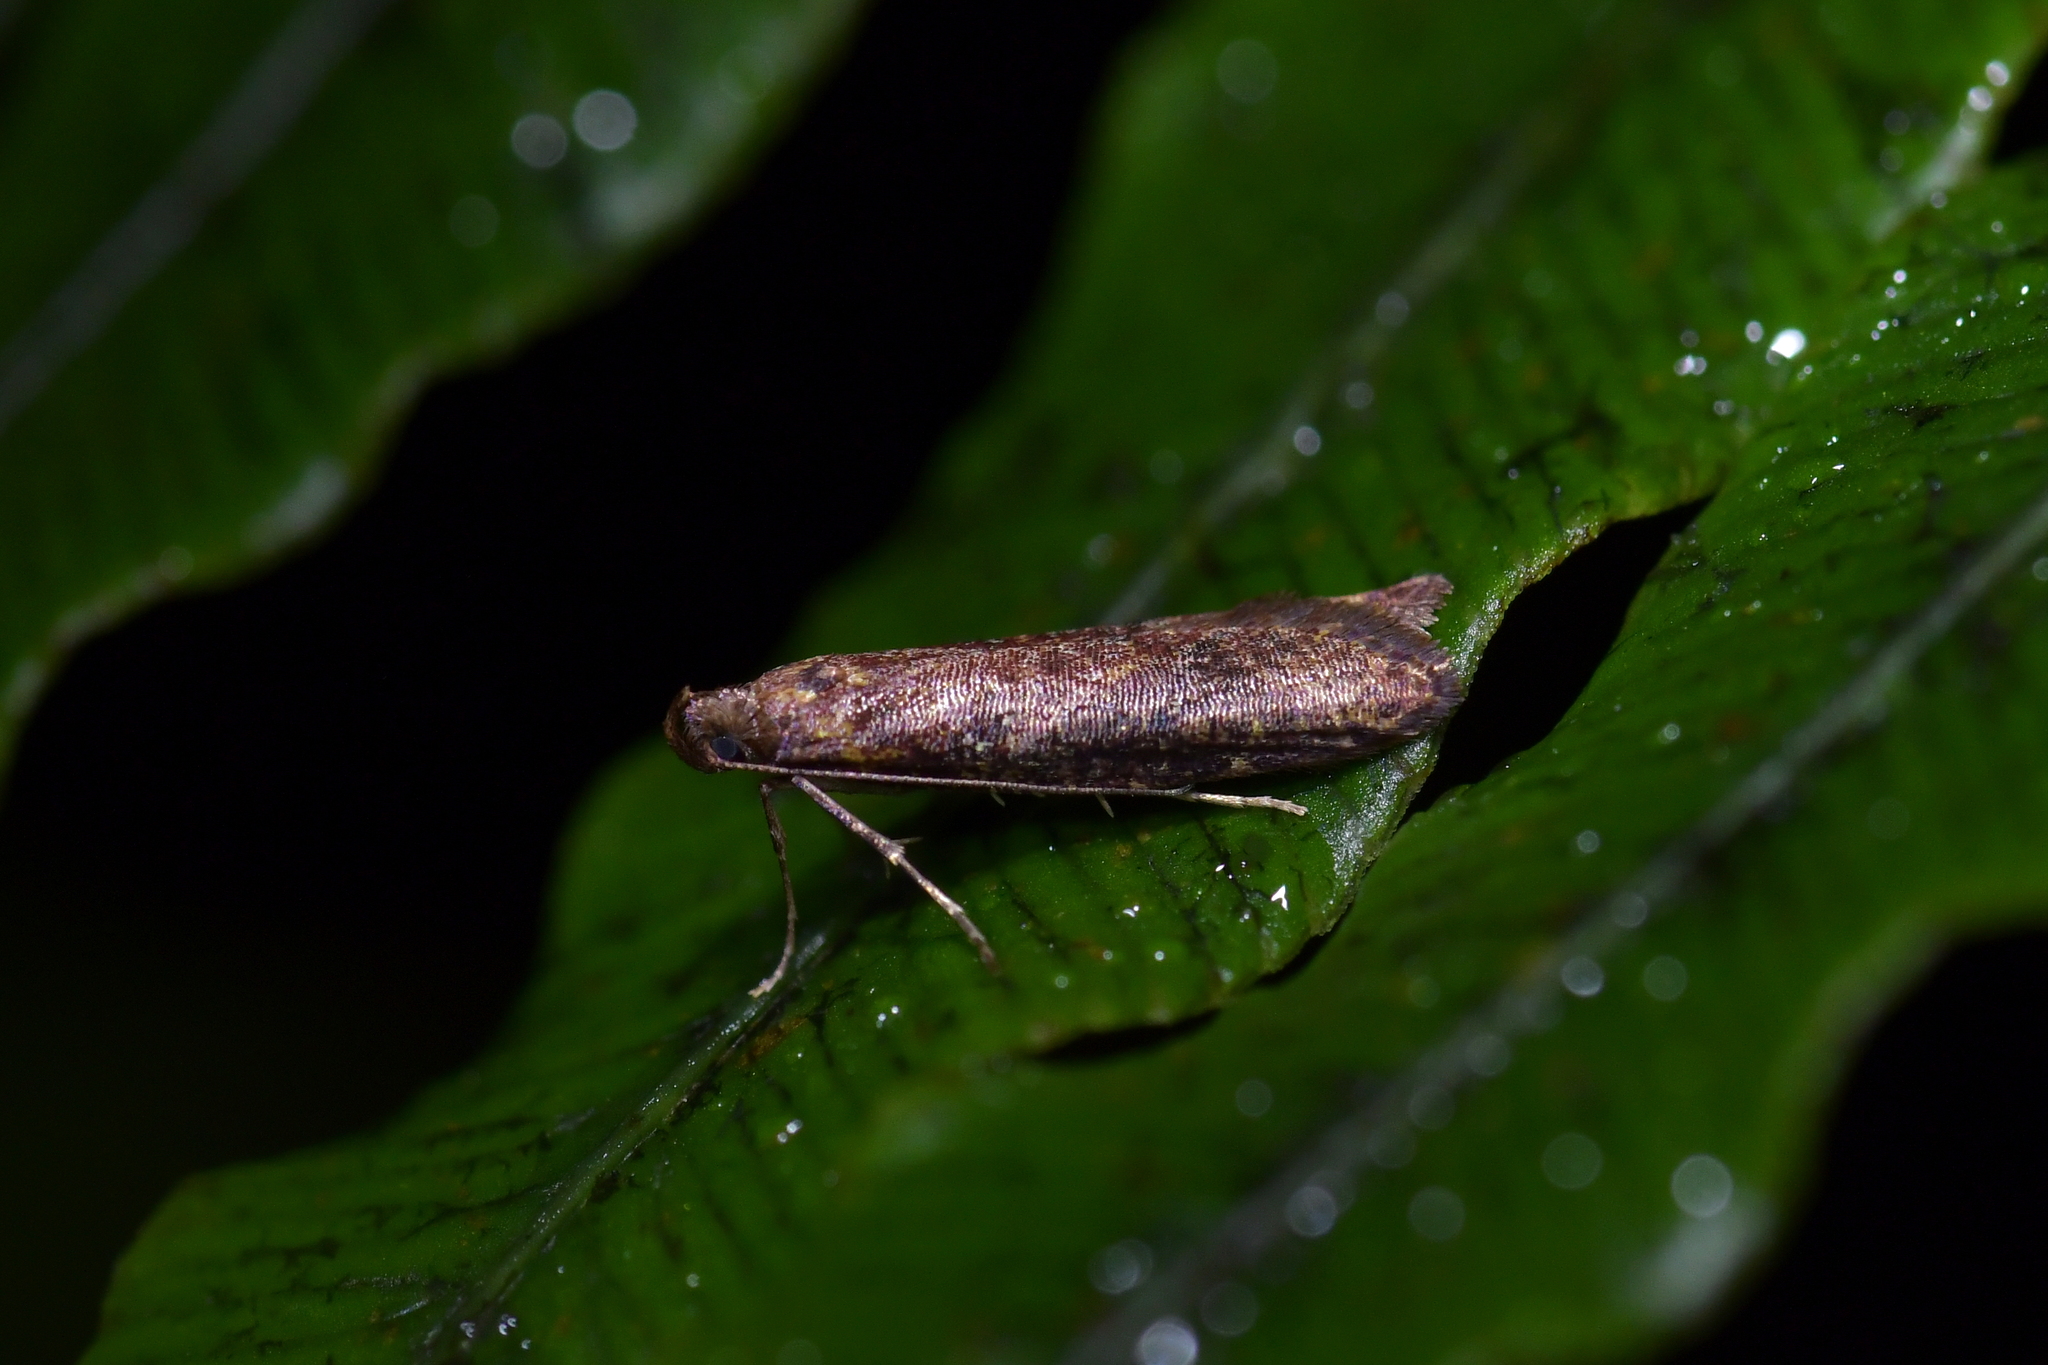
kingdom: Animalia
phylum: Arthropoda
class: Insecta
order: Lepidoptera
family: Plutellidae
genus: Cadmogenes
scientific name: Cadmogenes literata
